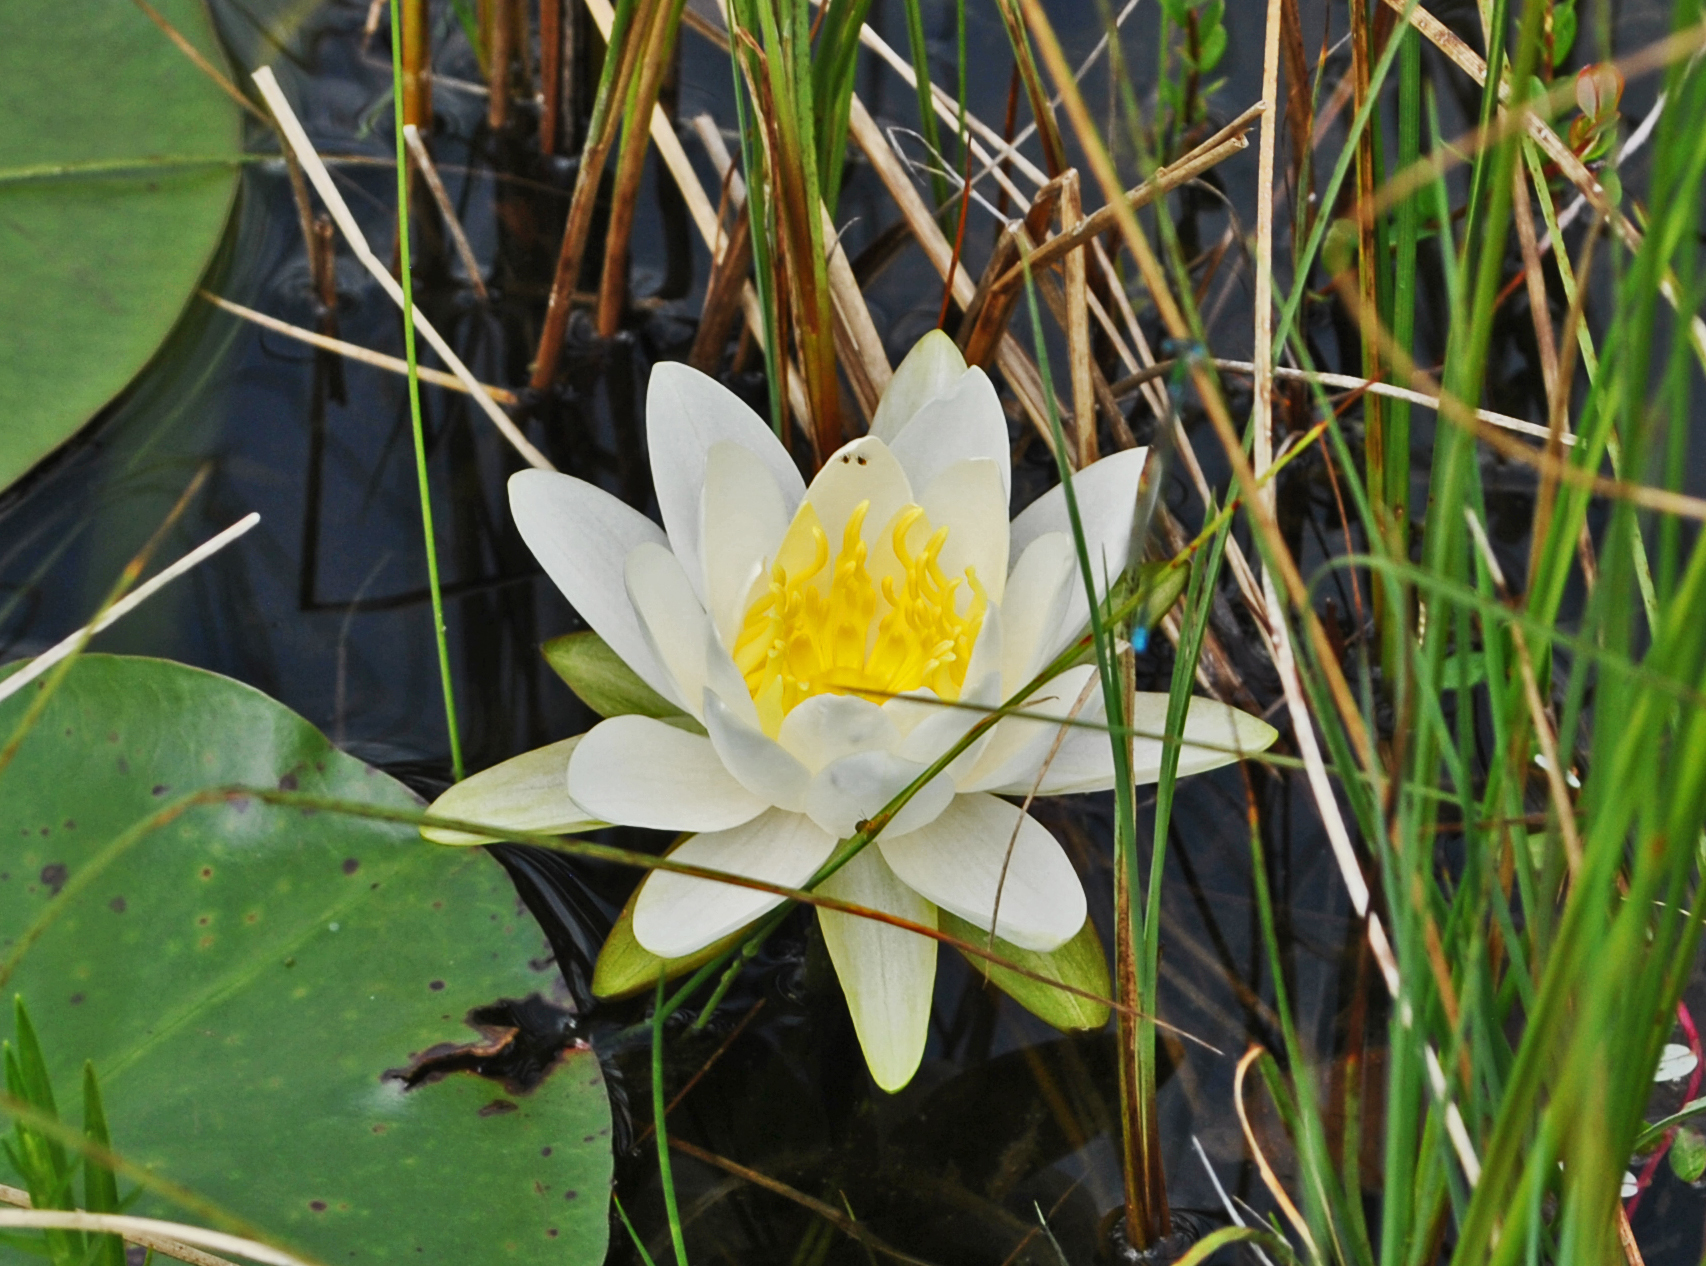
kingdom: Plantae
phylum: Tracheophyta
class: Magnoliopsida
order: Nymphaeales
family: Nymphaeaceae
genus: Nymphaea
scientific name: Nymphaea odorata
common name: Fragrant water-lily
